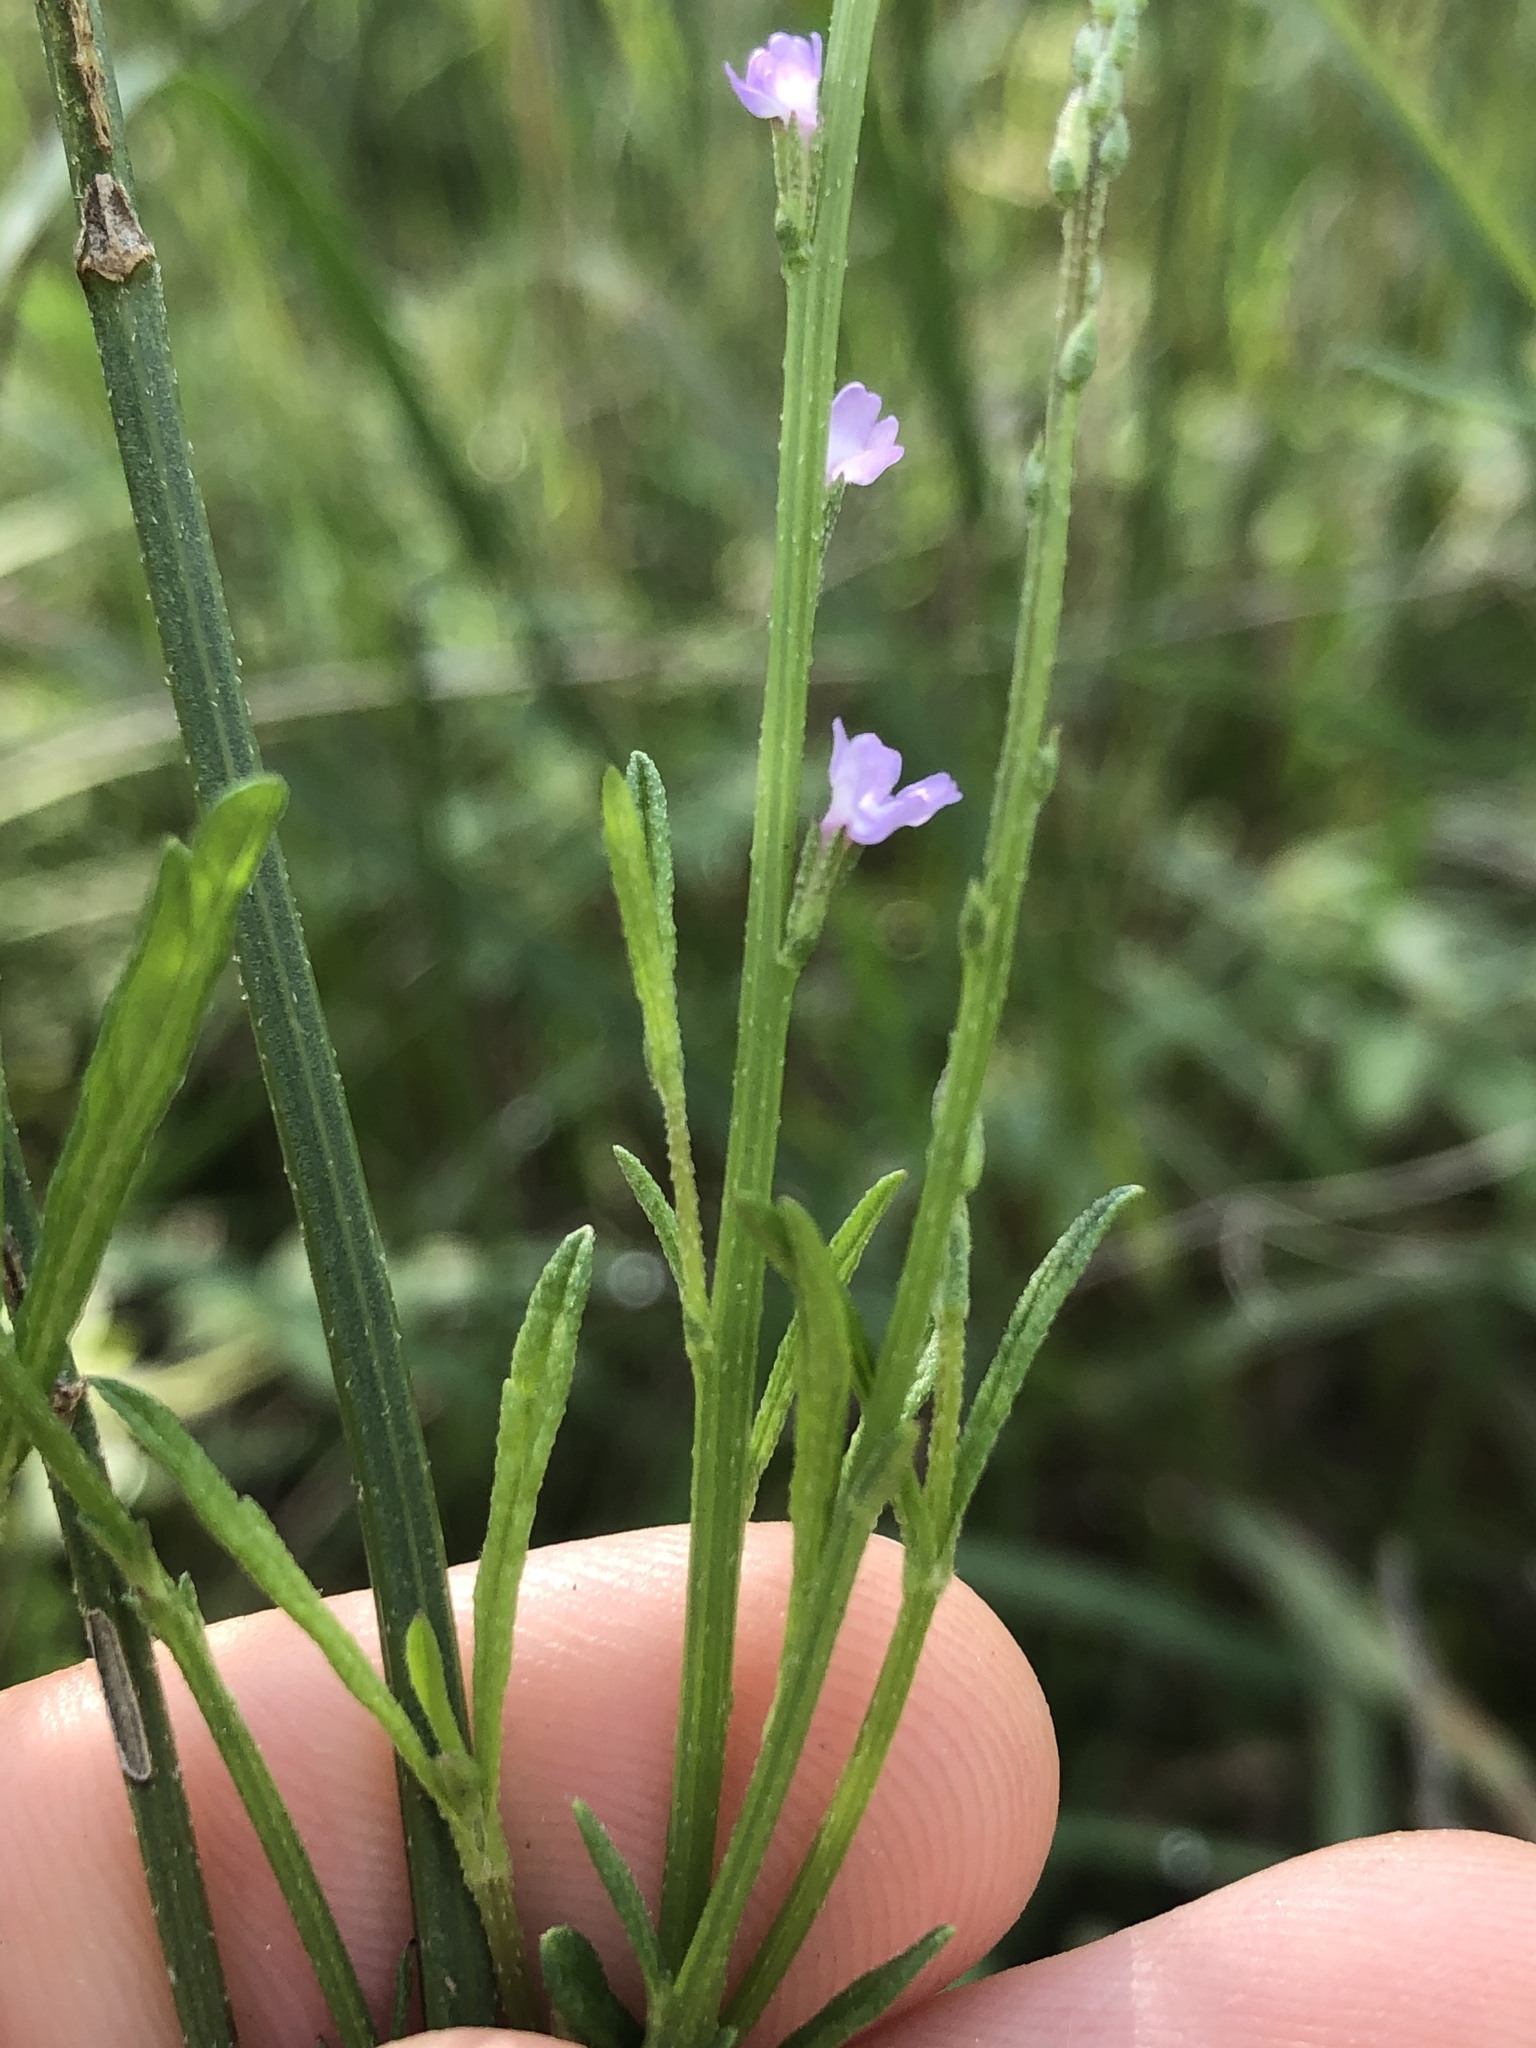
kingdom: Plantae
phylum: Tracheophyta
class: Magnoliopsida
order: Lamiales
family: Verbenaceae
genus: Verbena
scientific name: Verbena halei
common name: Texas vervain
